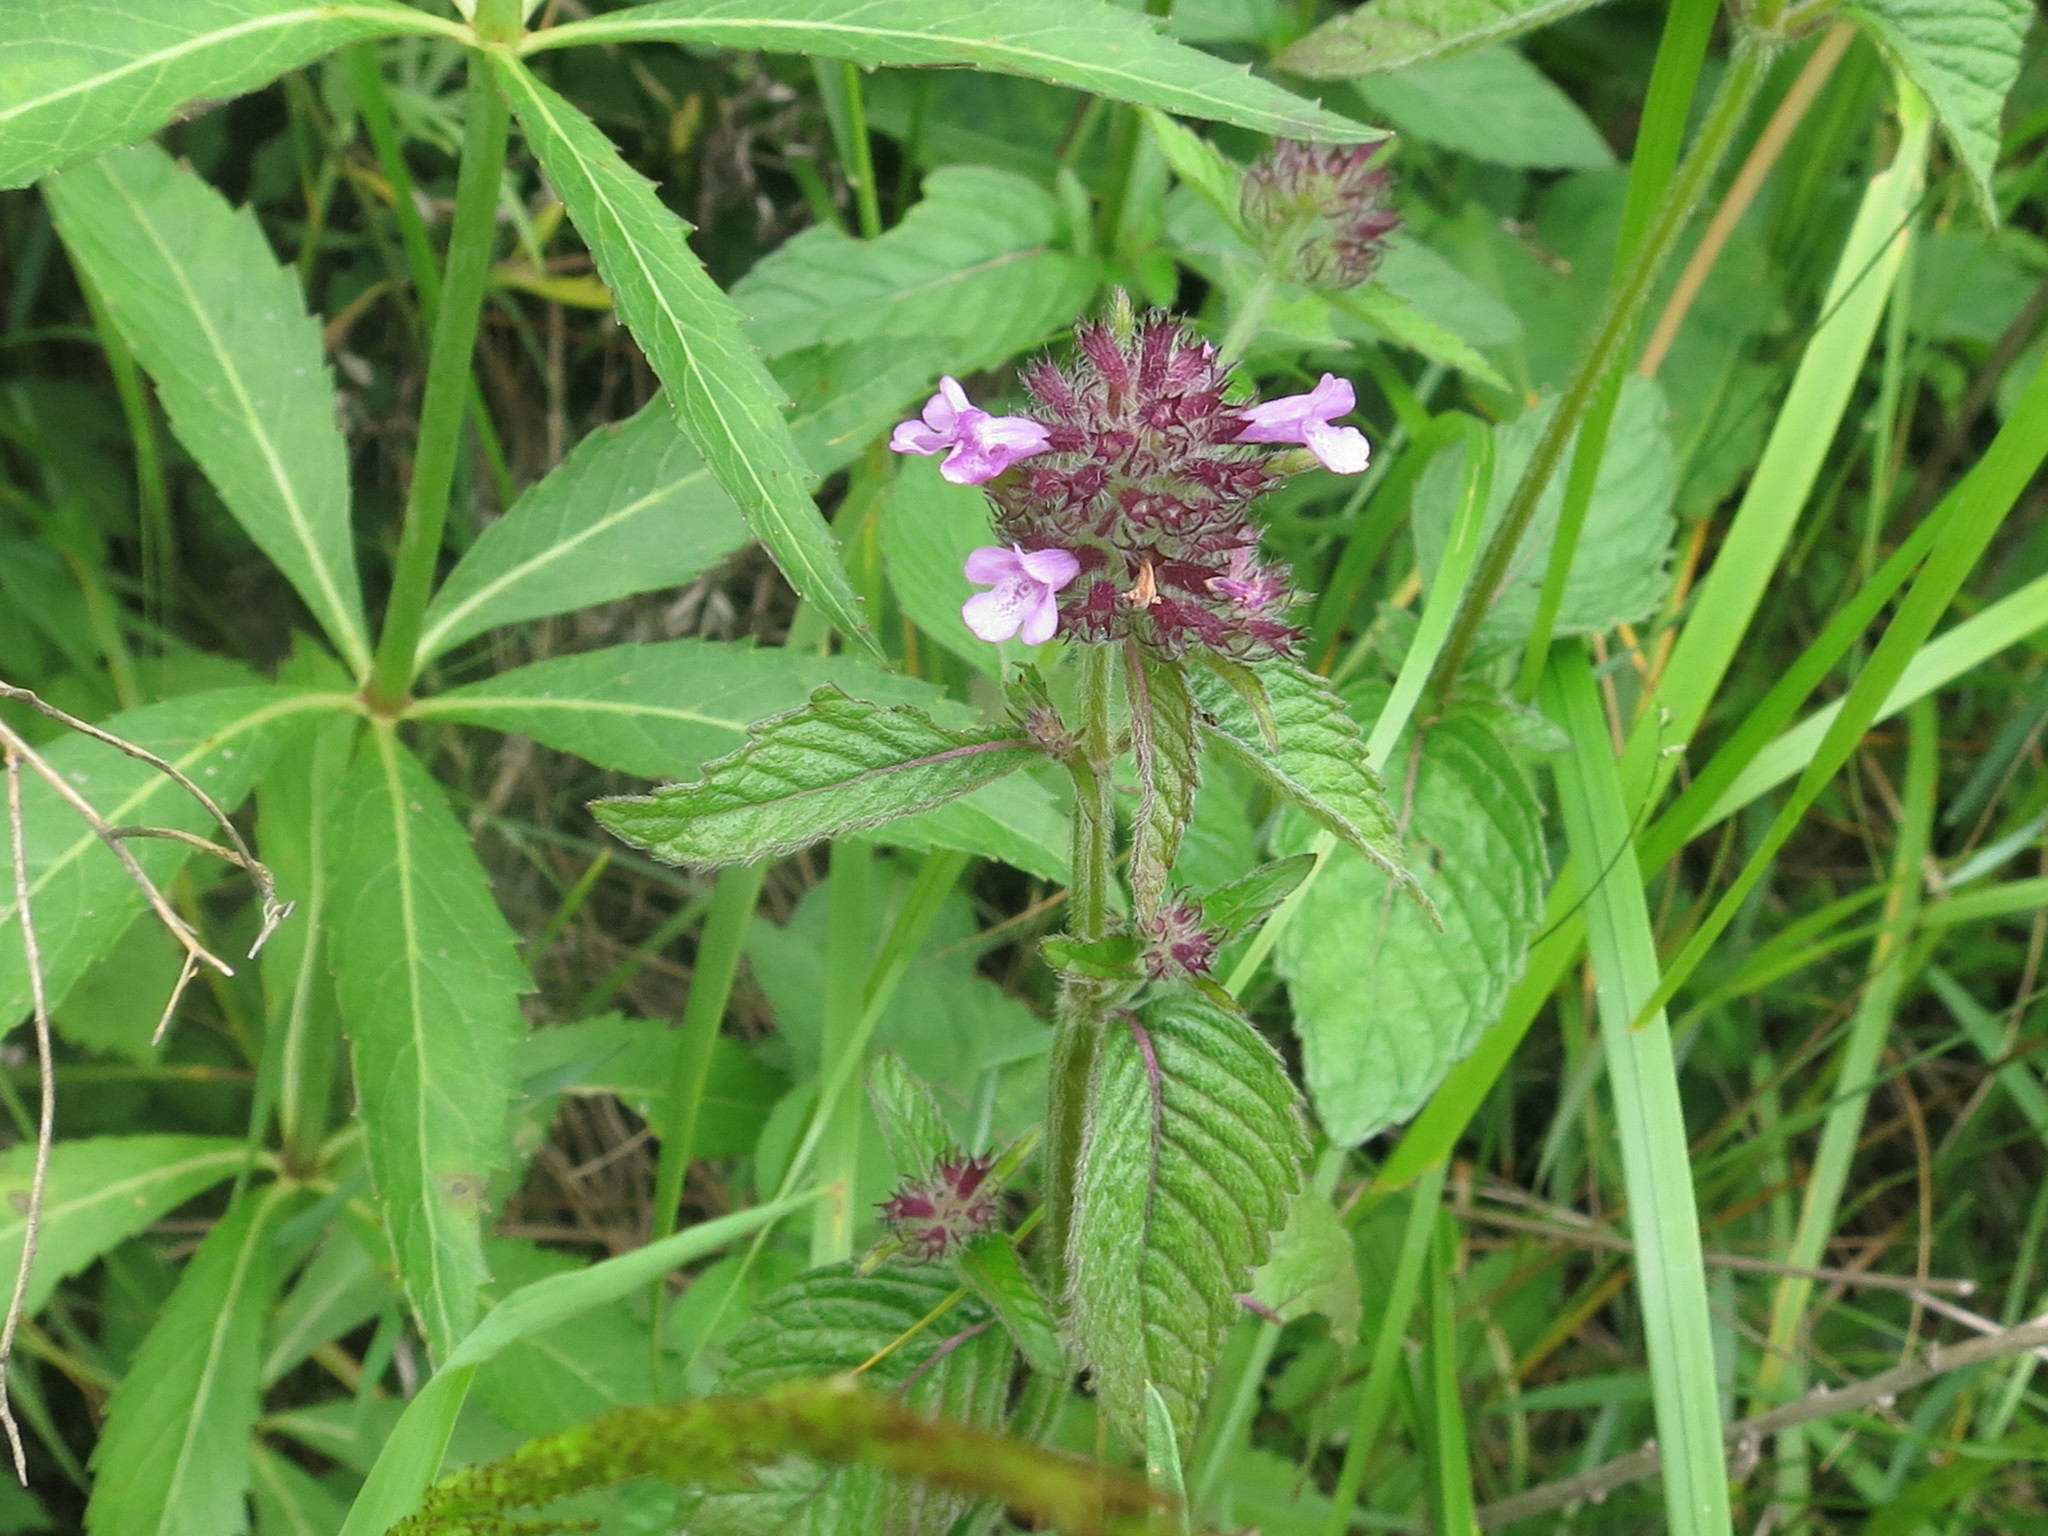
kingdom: Plantae
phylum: Tracheophyta
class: Magnoliopsida
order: Lamiales
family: Lamiaceae
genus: Clinopodium
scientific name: Clinopodium chinense
